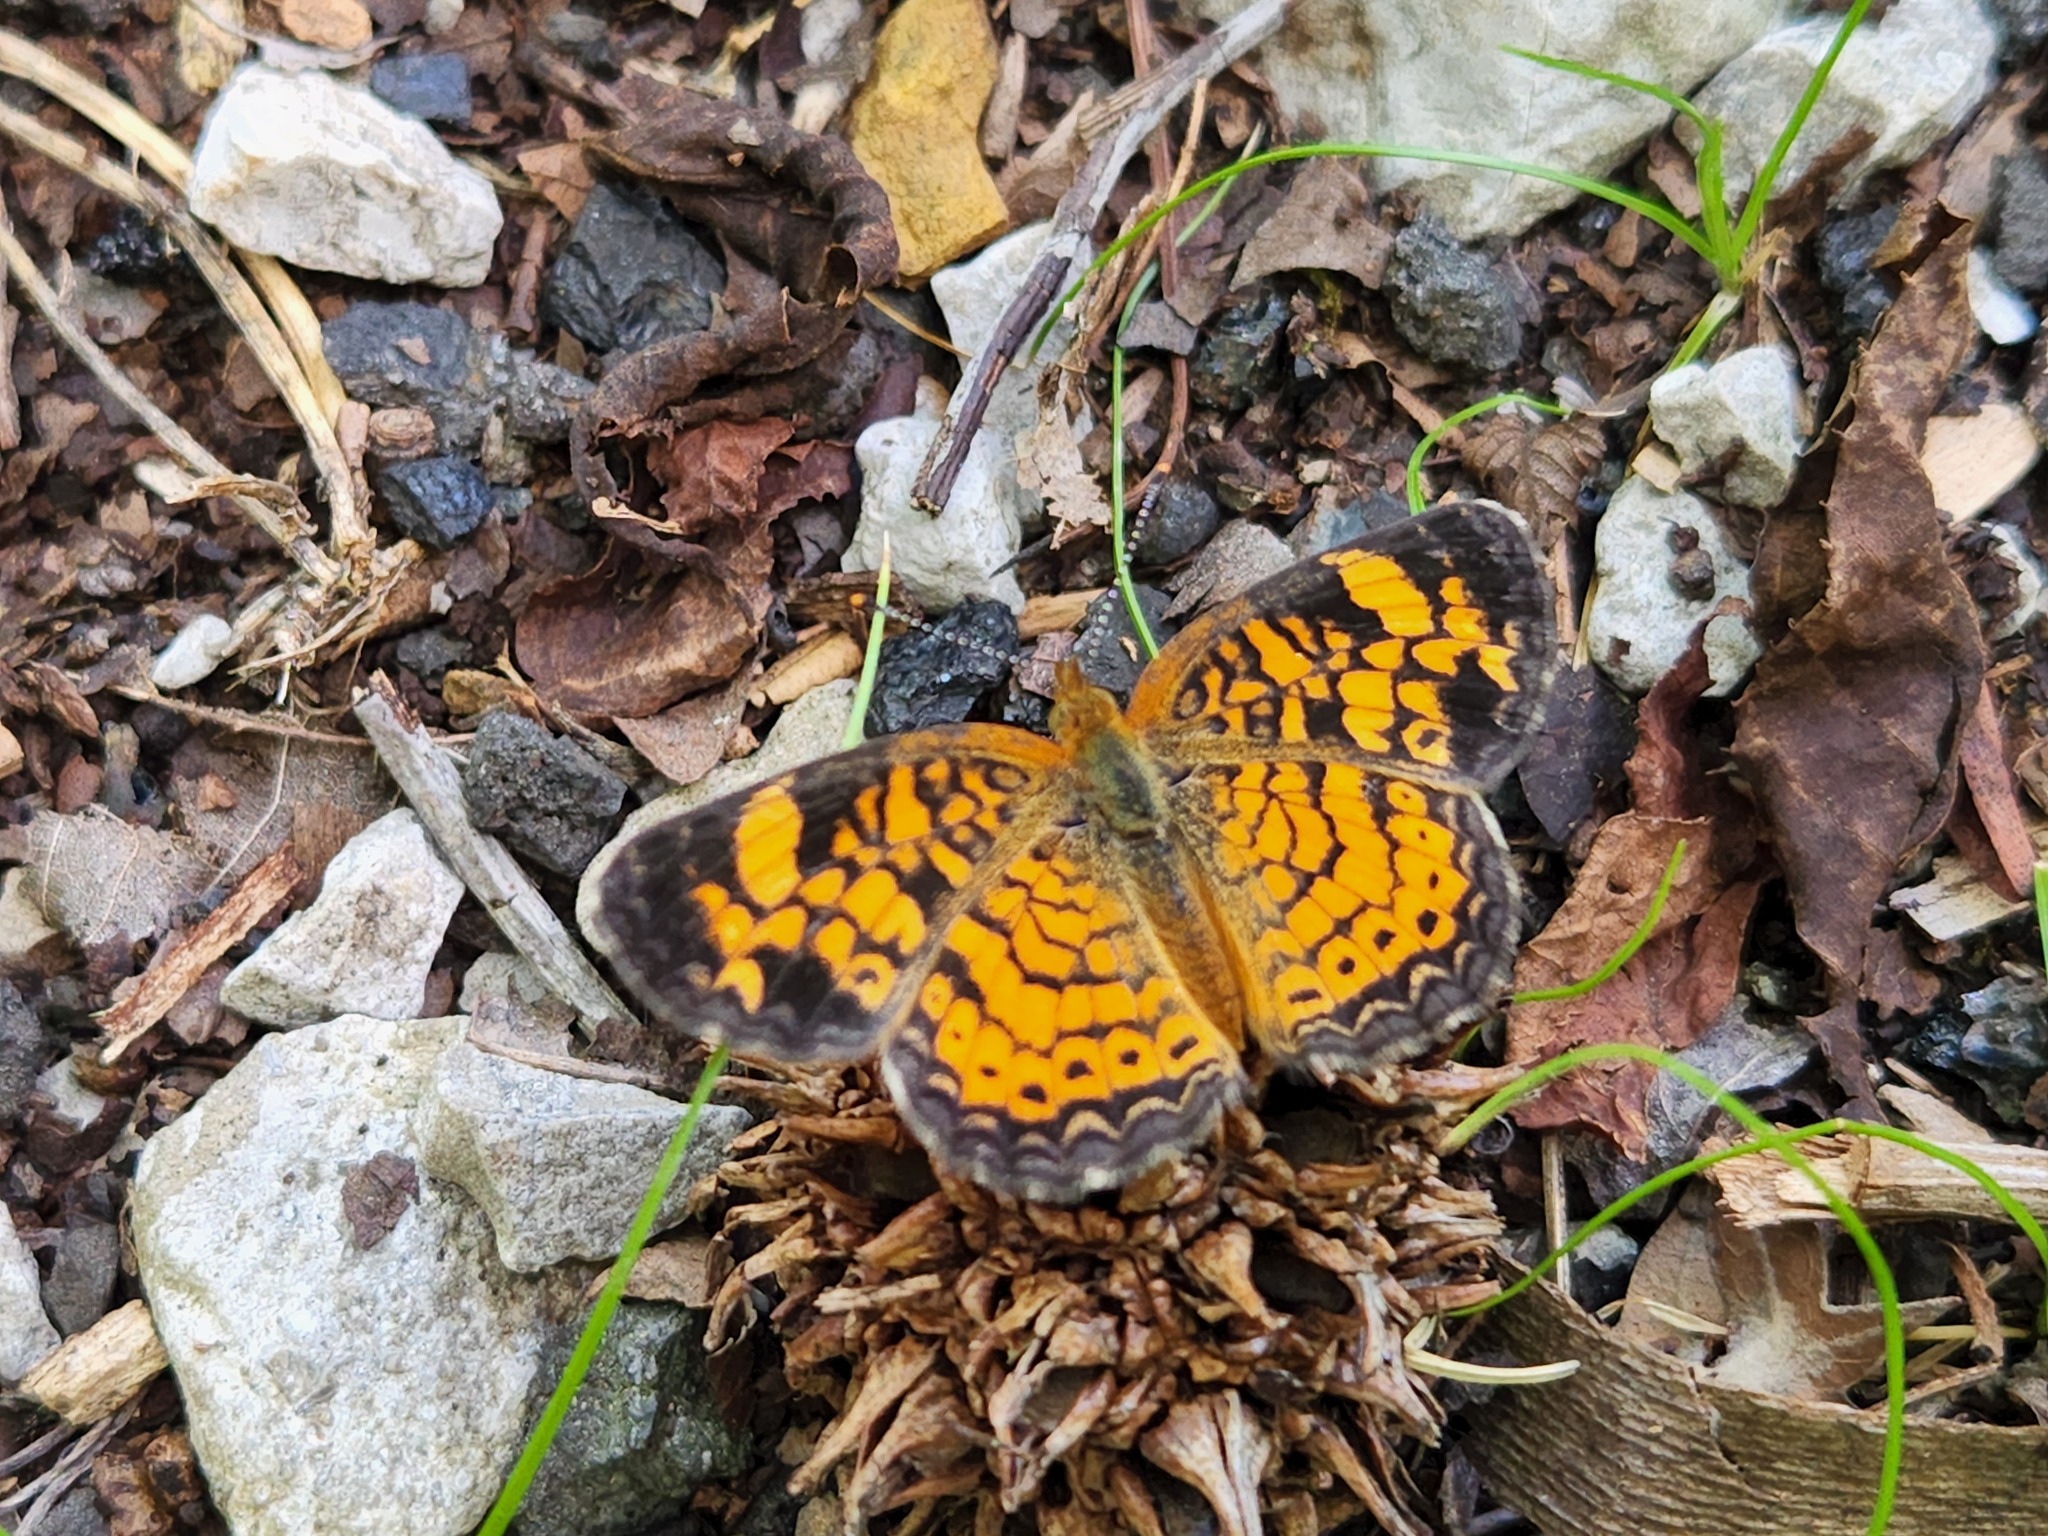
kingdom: Animalia
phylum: Arthropoda
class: Insecta
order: Lepidoptera
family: Nymphalidae
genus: Phyciodes
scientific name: Phyciodes tharos
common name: Pearl crescent
